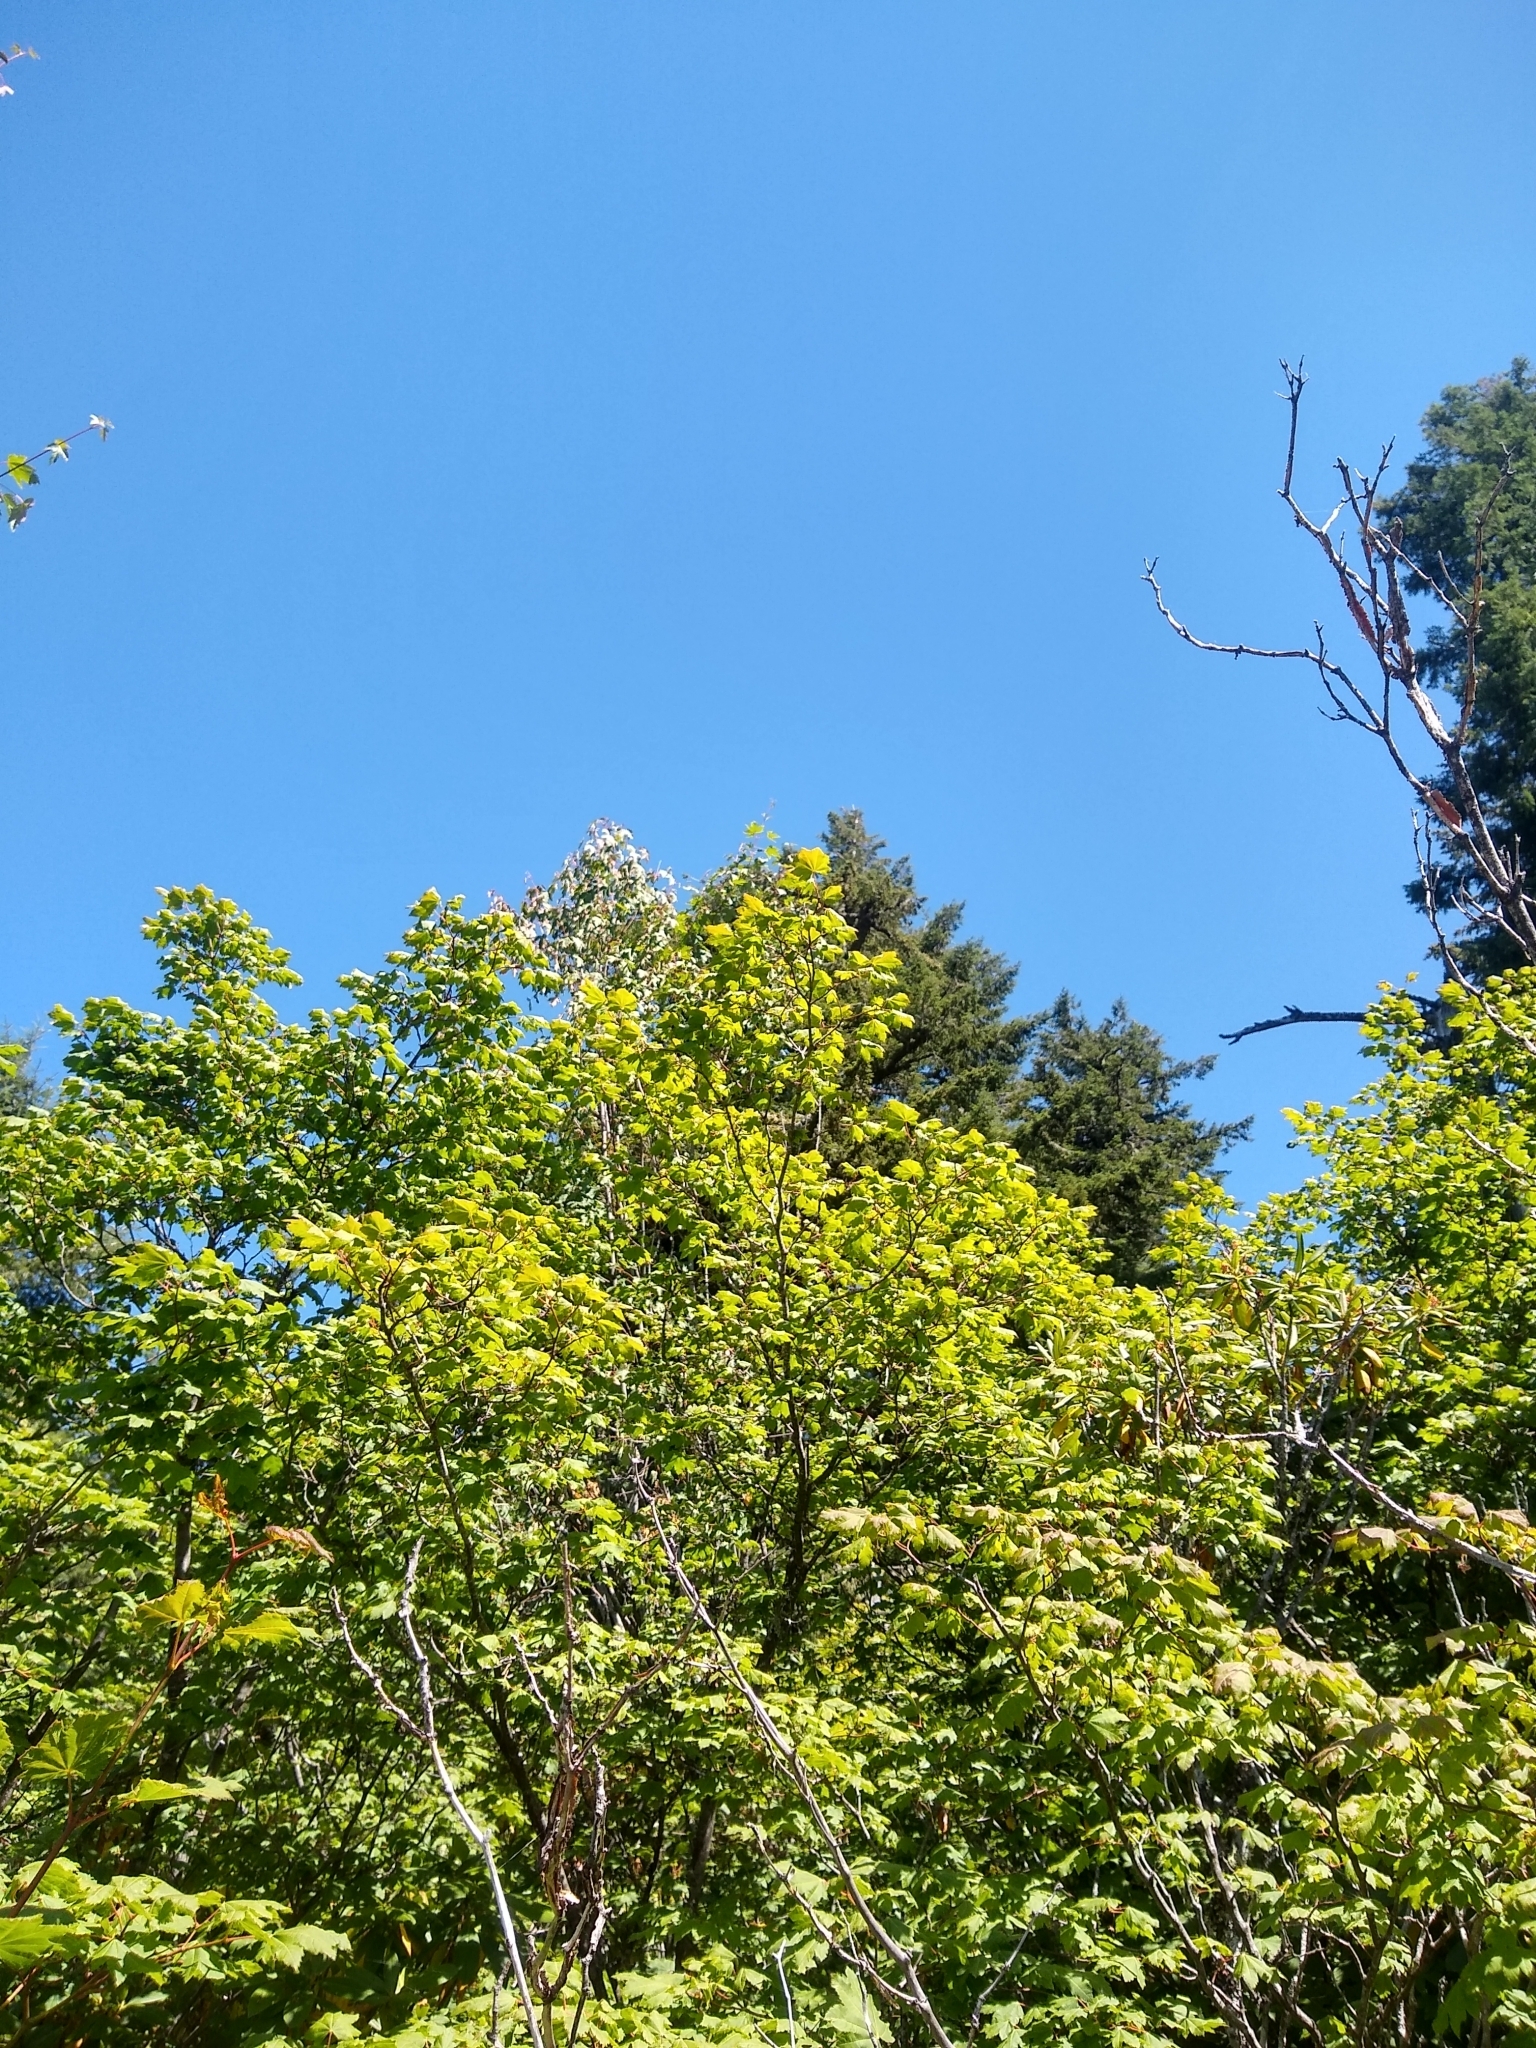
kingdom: Plantae
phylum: Tracheophyta
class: Magnoliopsida
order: Sapindales
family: Sapindaceae
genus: Acer
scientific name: Acer circinatum
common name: Vine maple
